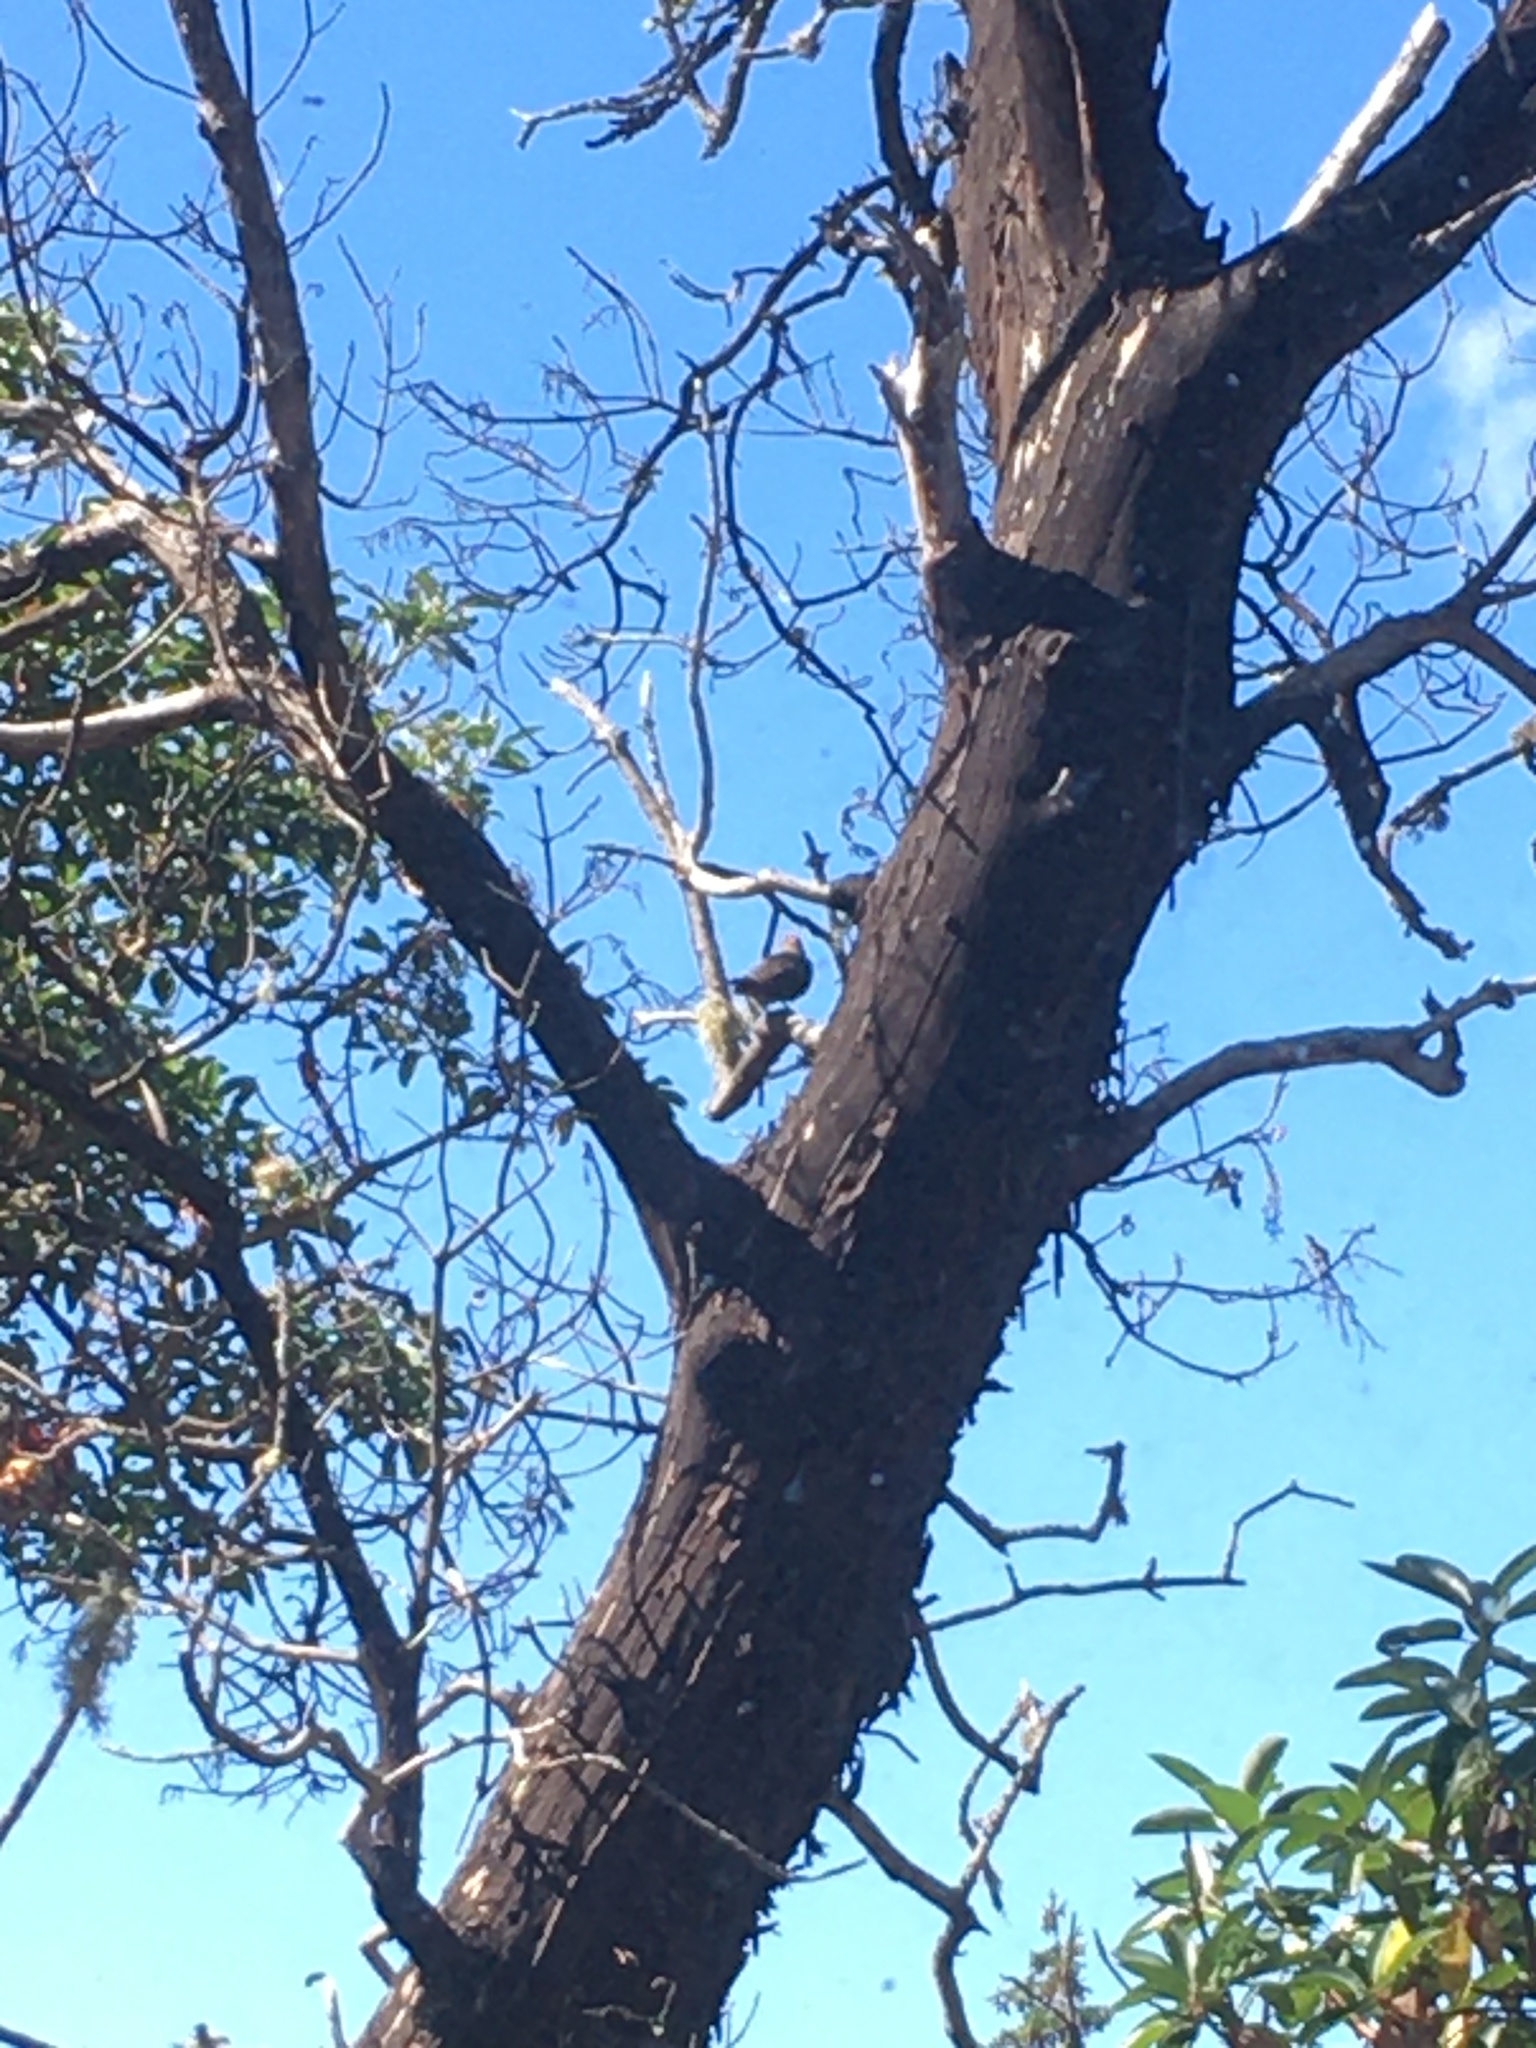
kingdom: Animalia
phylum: Chordata
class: Aves
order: Piciformes
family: Picidae
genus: Colaptes
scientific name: Colaptes auratus
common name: Northern flicker
